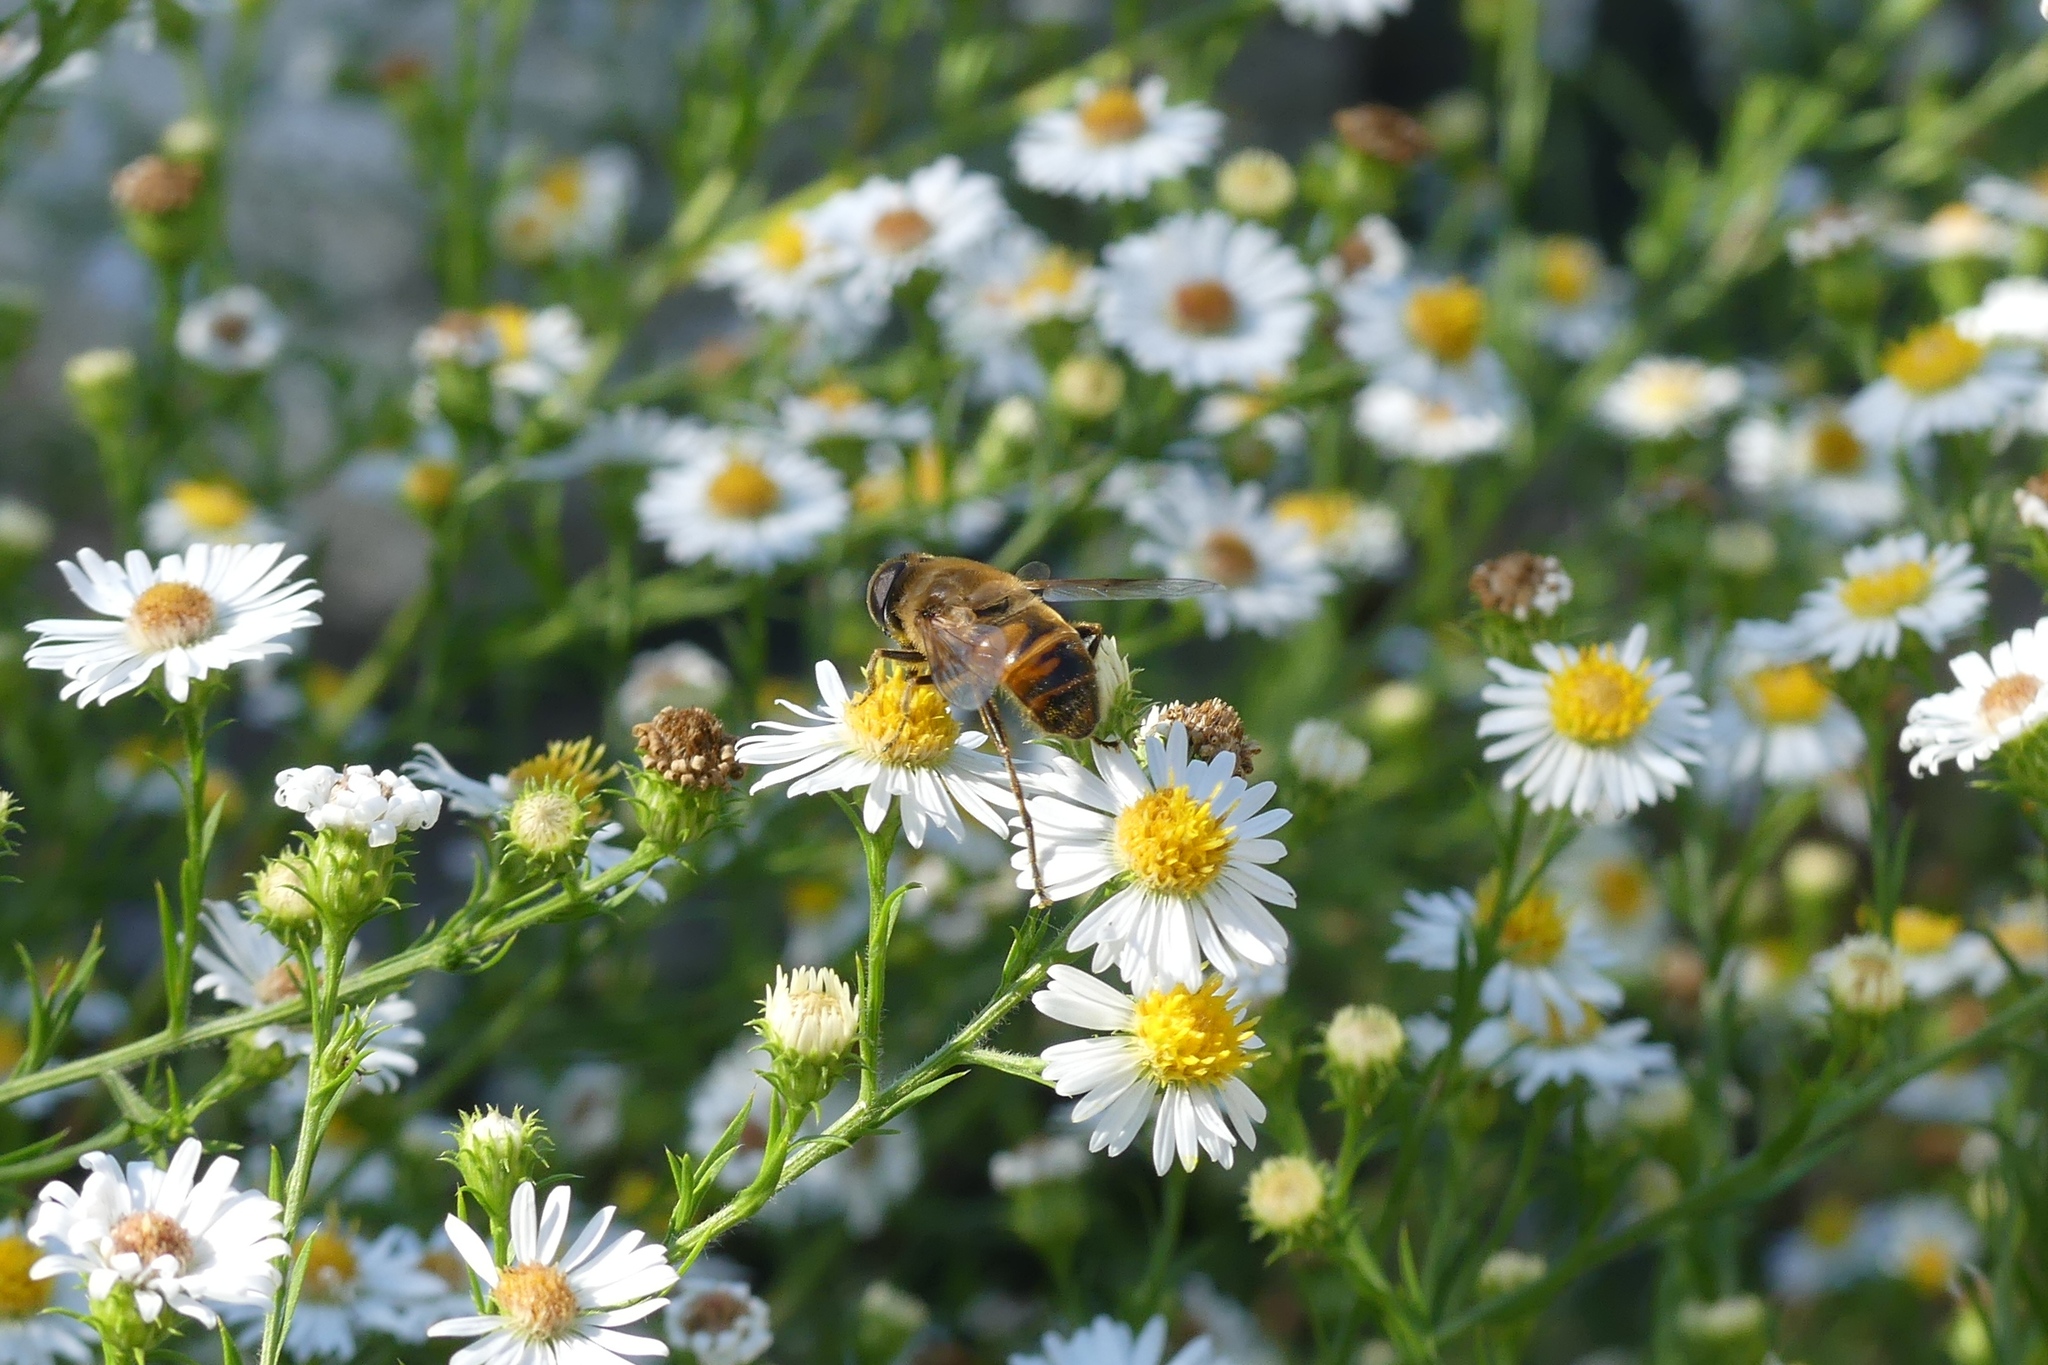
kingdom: Animalia
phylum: Arthropoda
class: Insecta
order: Diptera
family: Syrphidae
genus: Eristalis
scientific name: Eristalis tenax
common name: Drone fly
